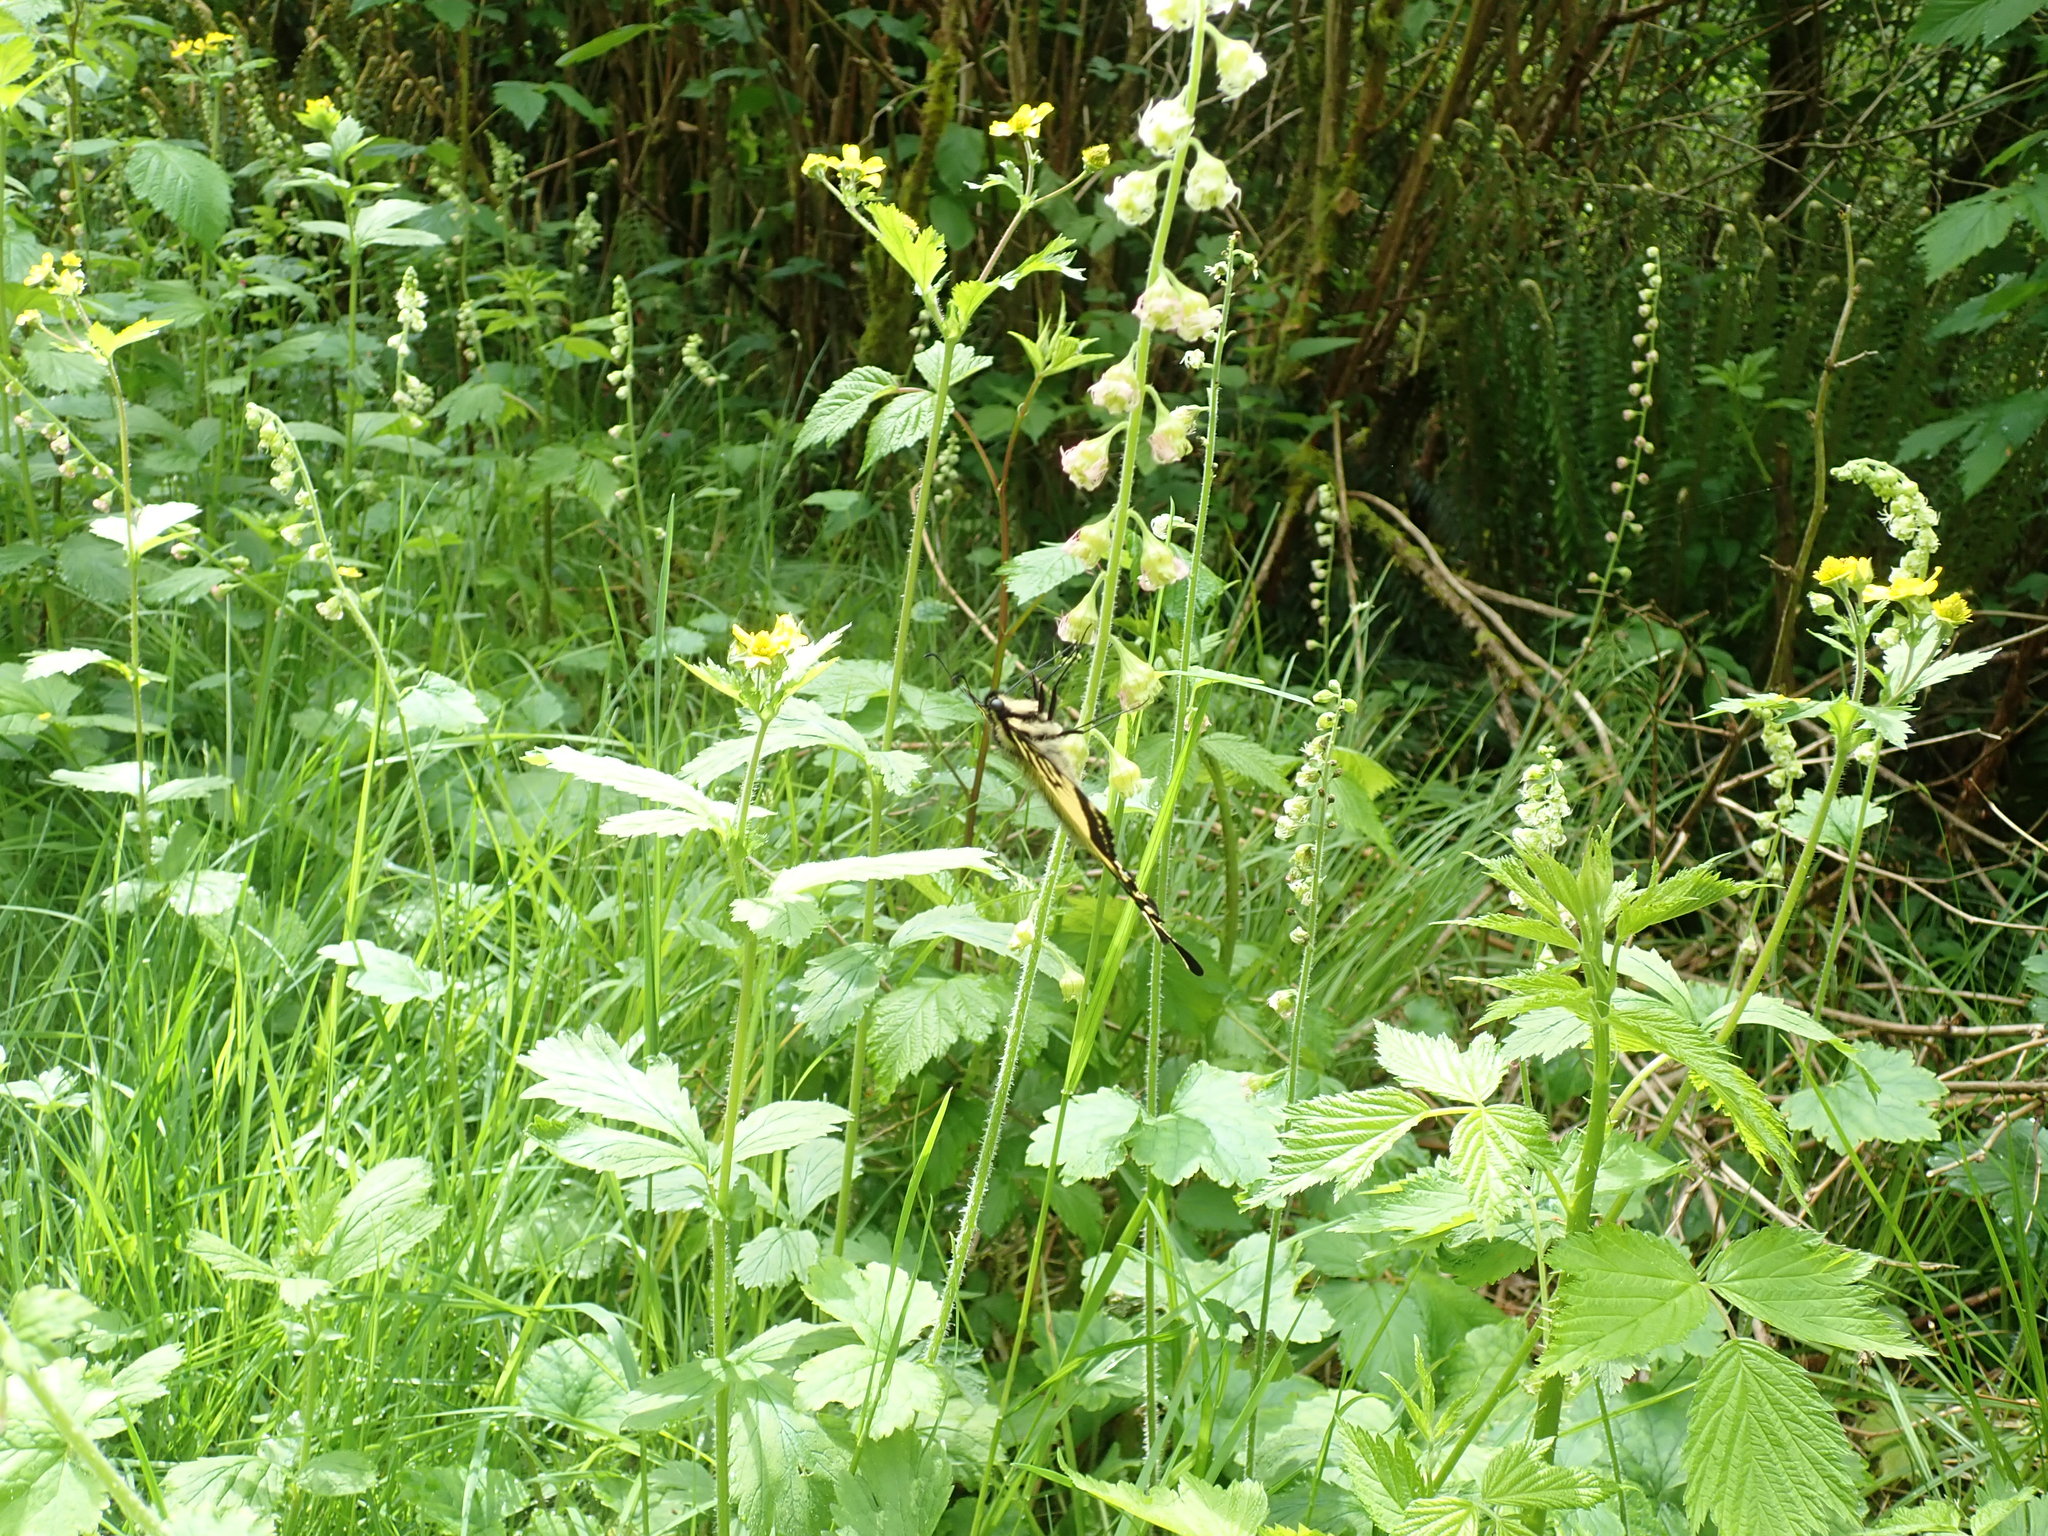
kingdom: Animalia
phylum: Arthropoda
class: Insecta
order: Lepidoptera
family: Papilionidae
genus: Papilio
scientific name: Papilio rutulus
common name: Western tiger swallowtail
